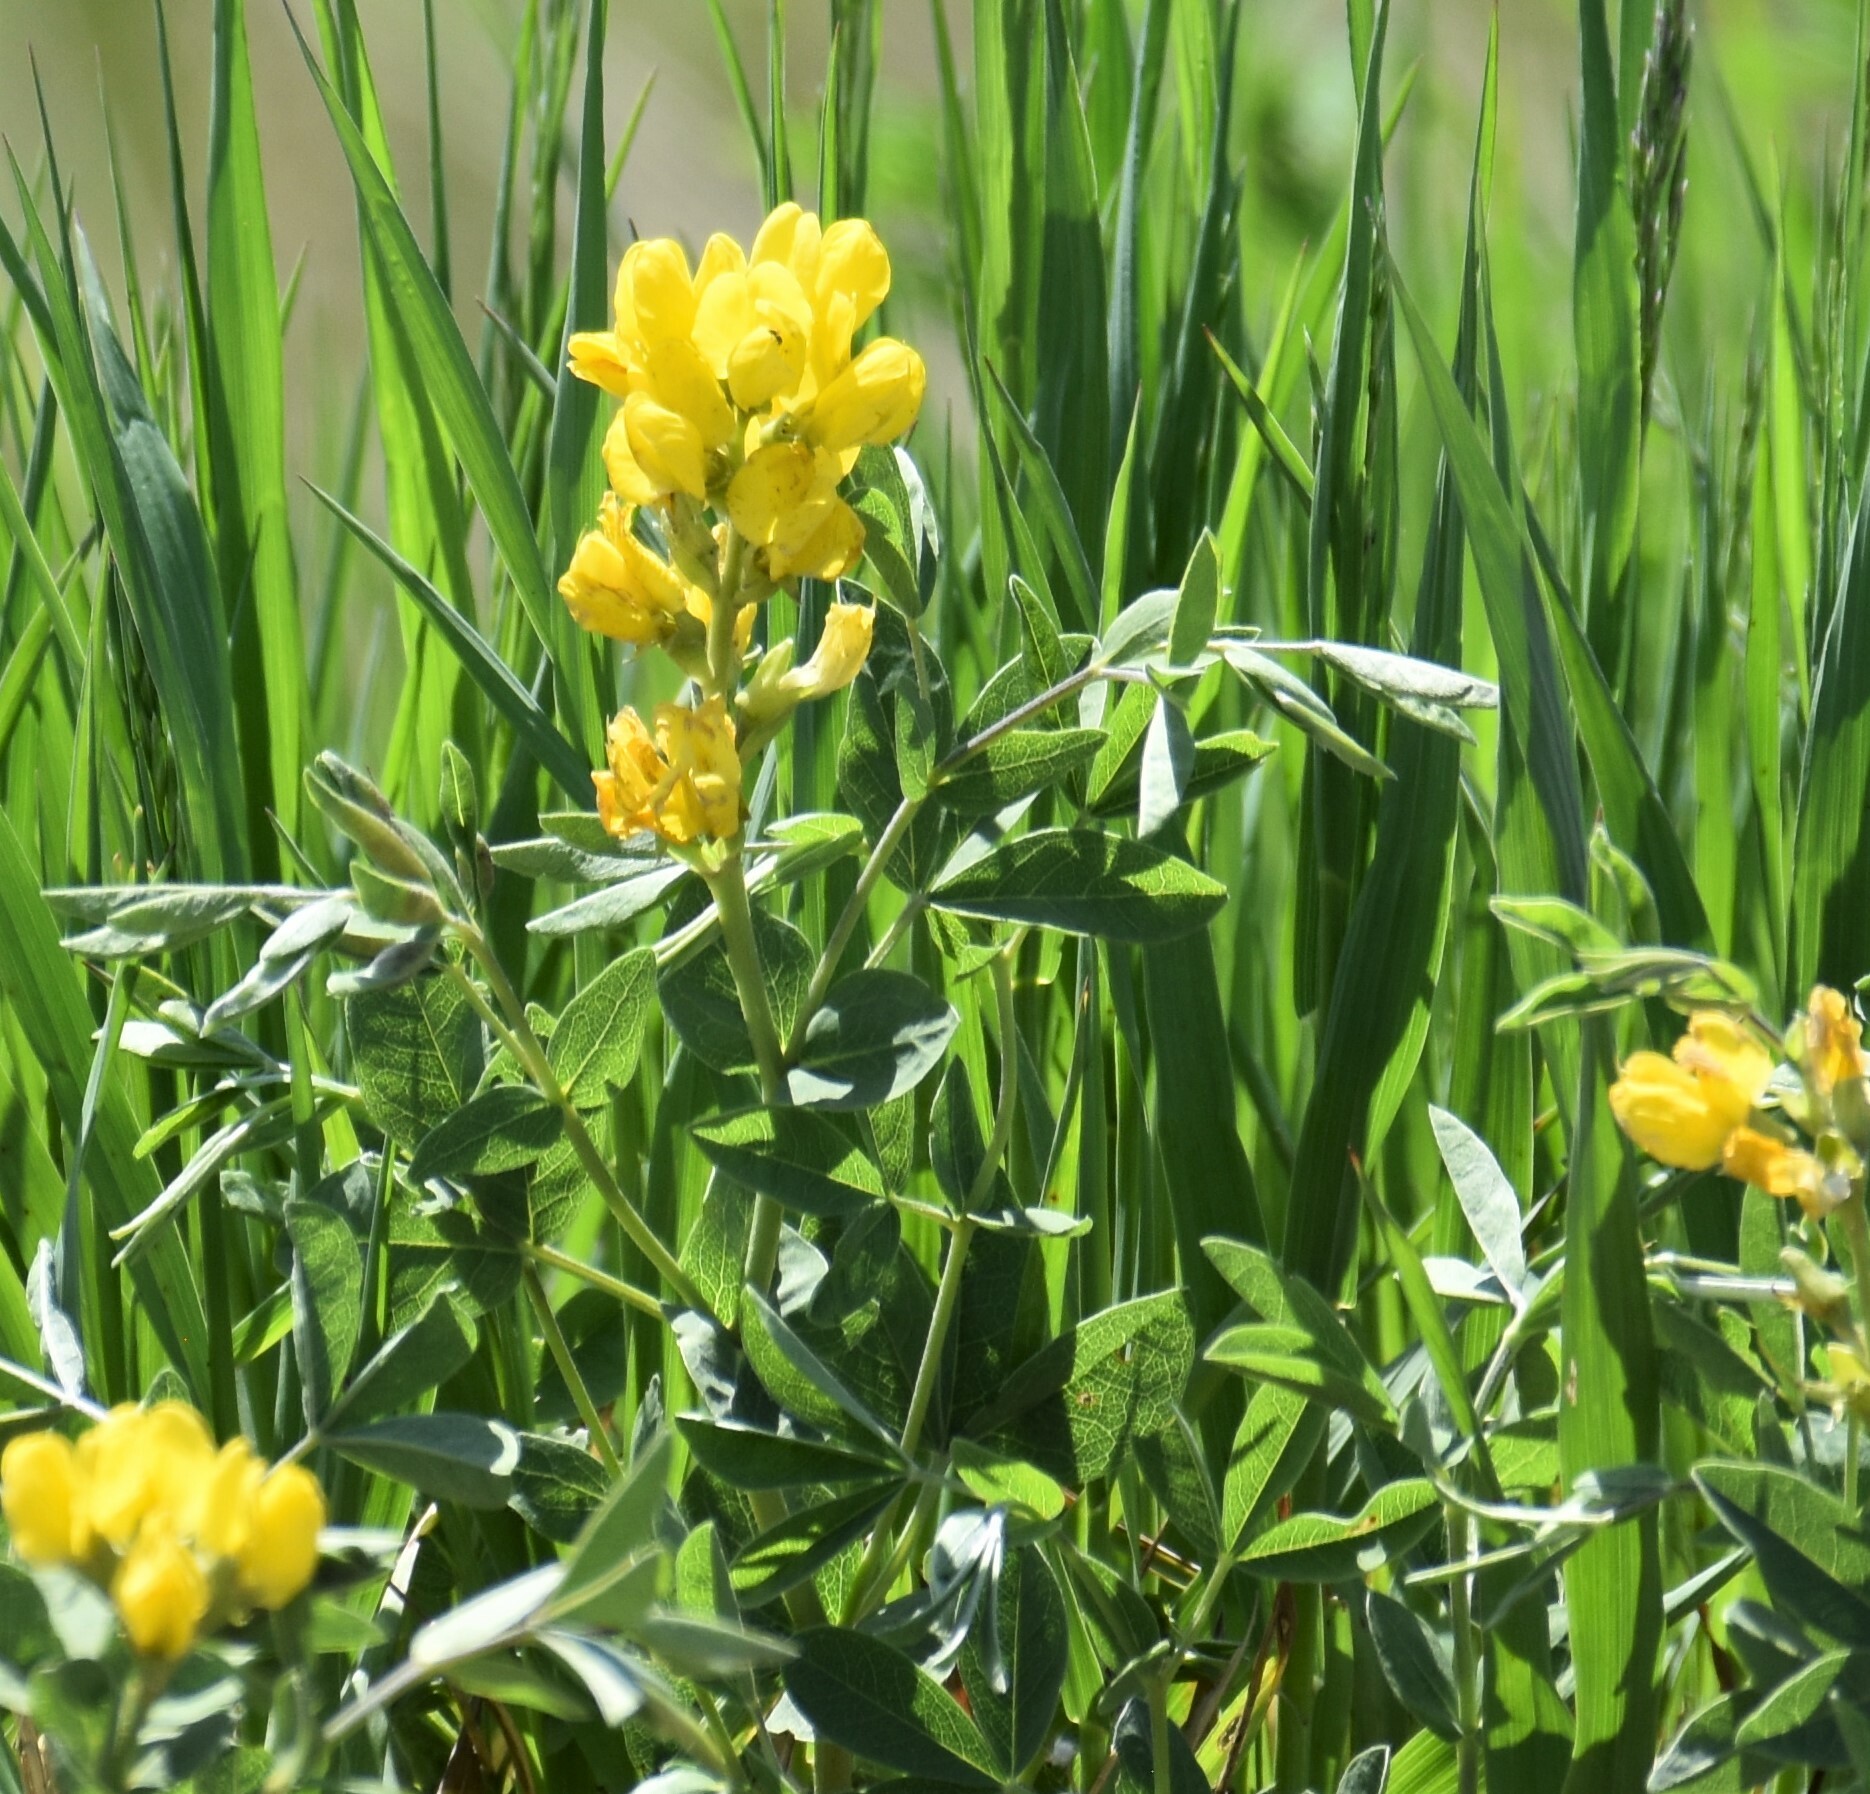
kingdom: Plantae
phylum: Tracheophyta
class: Magnoliopsida
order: Fabales
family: Fabaceae
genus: Thermopsis
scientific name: Thermopsis rhombifolia
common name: Circle-pod-pea
